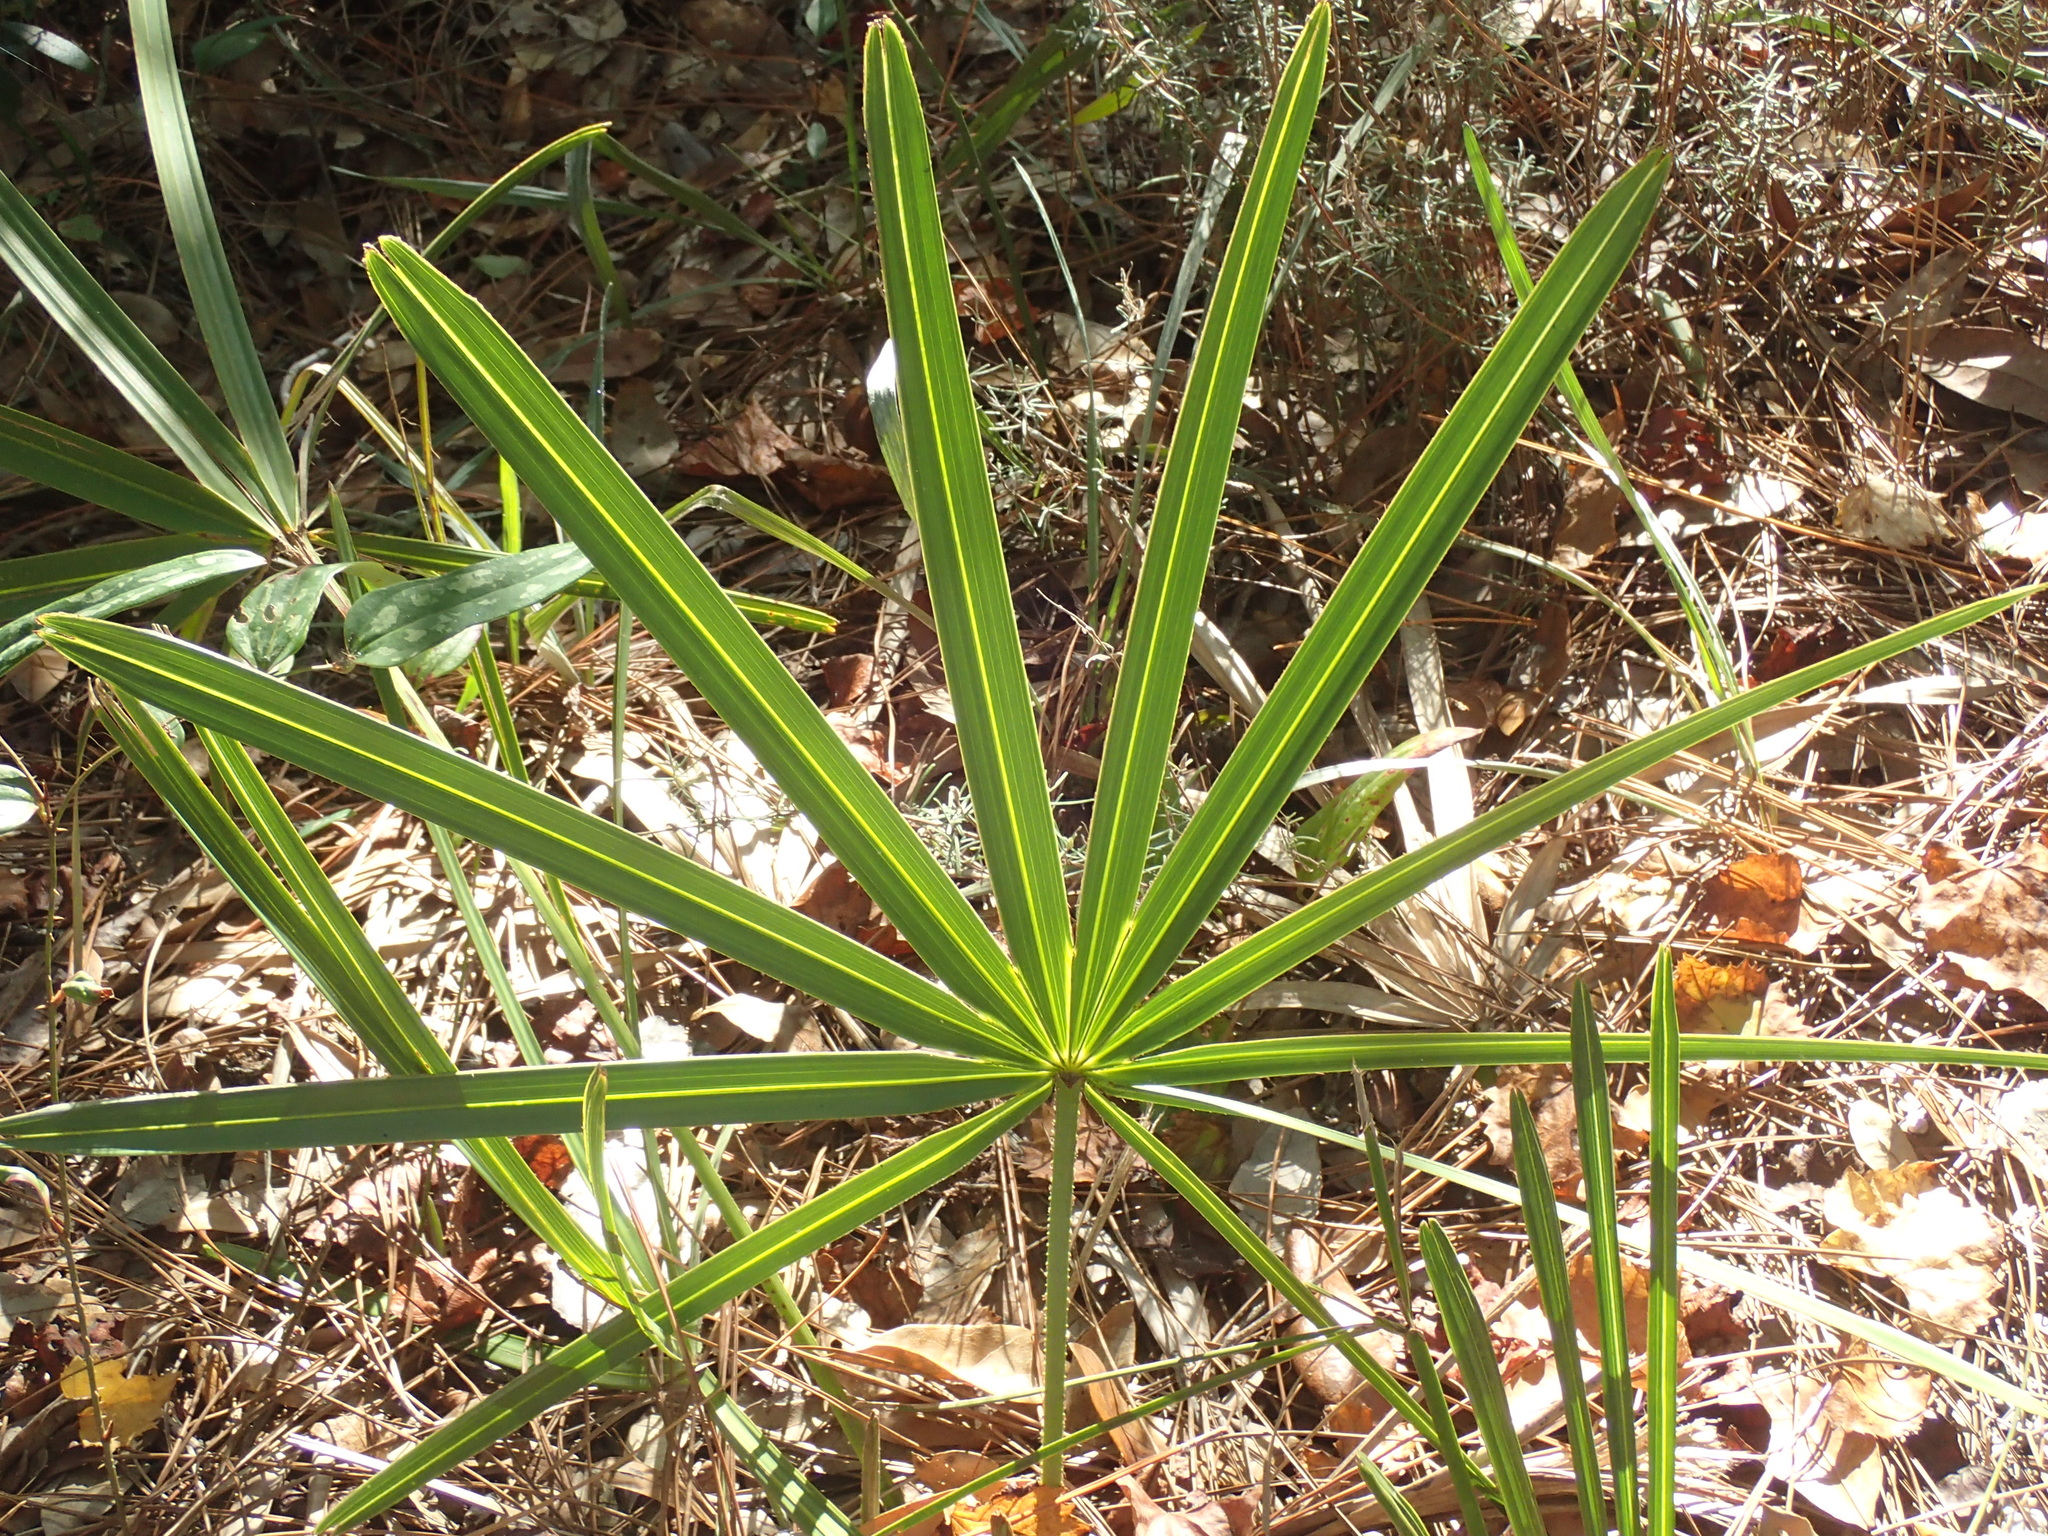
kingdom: Plantae
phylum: Tracheophyta
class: Liliopsida
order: Arecales
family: Arecaceae
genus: Serenoa
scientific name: Serenoa repens
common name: Saw-palmetto
